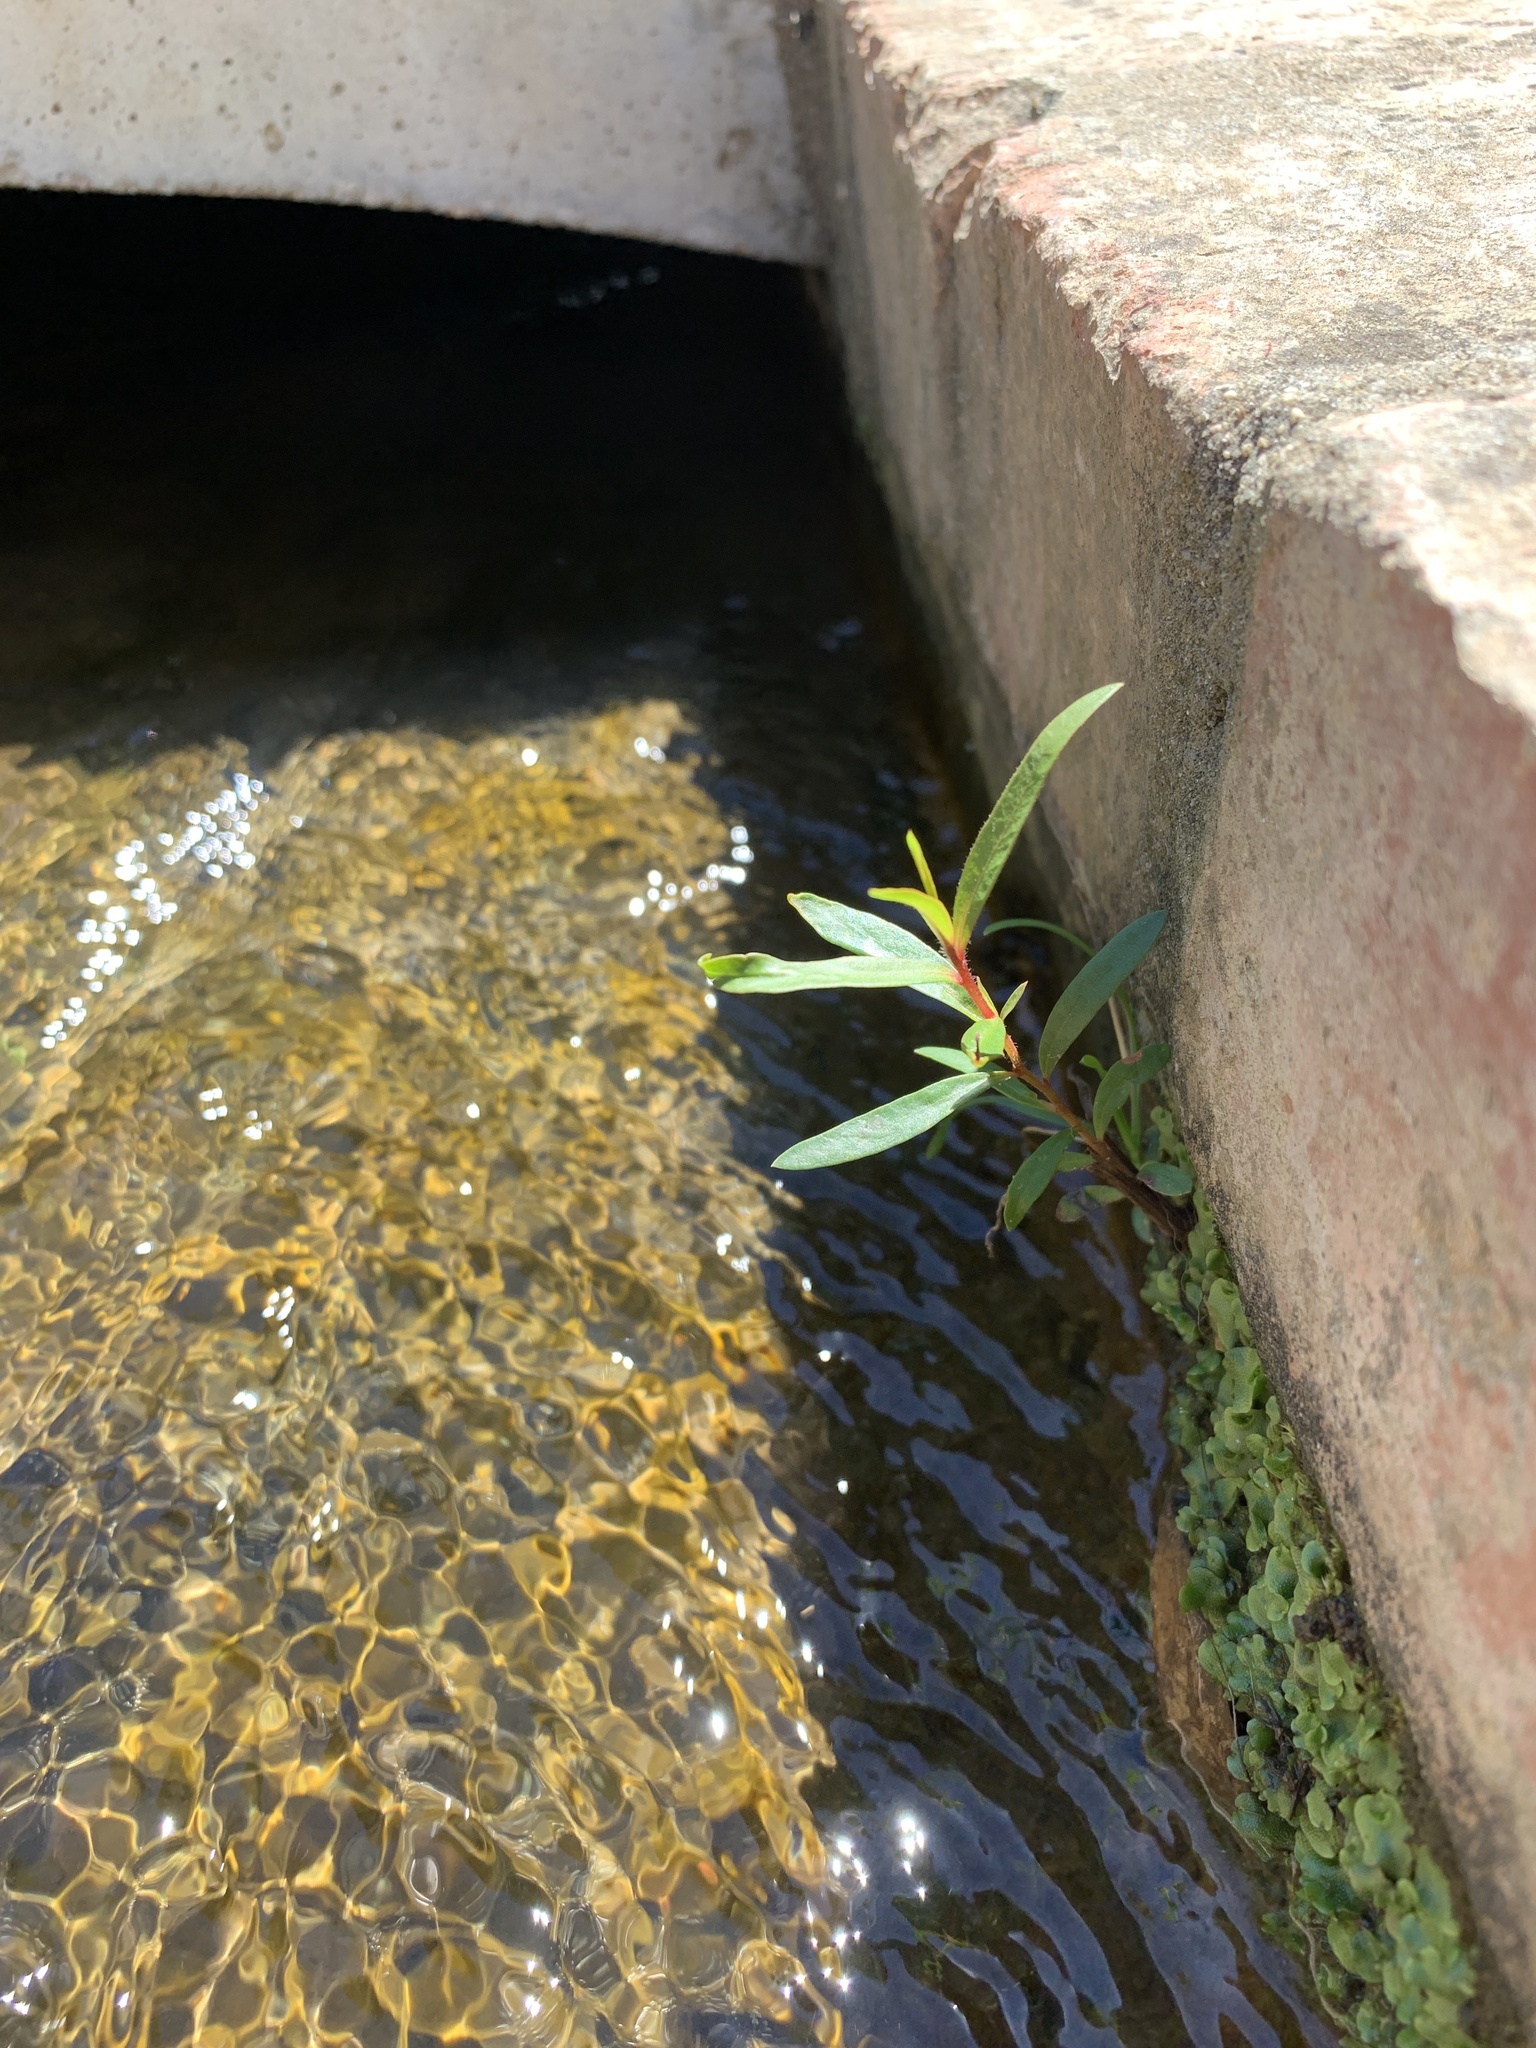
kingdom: Plantae
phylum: Tracheophyta
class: Magnoliopsida
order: Myrtales
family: Myrtaceae
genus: Callistemon
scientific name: Callistemon viminalis
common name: Drooping bottlebrush
